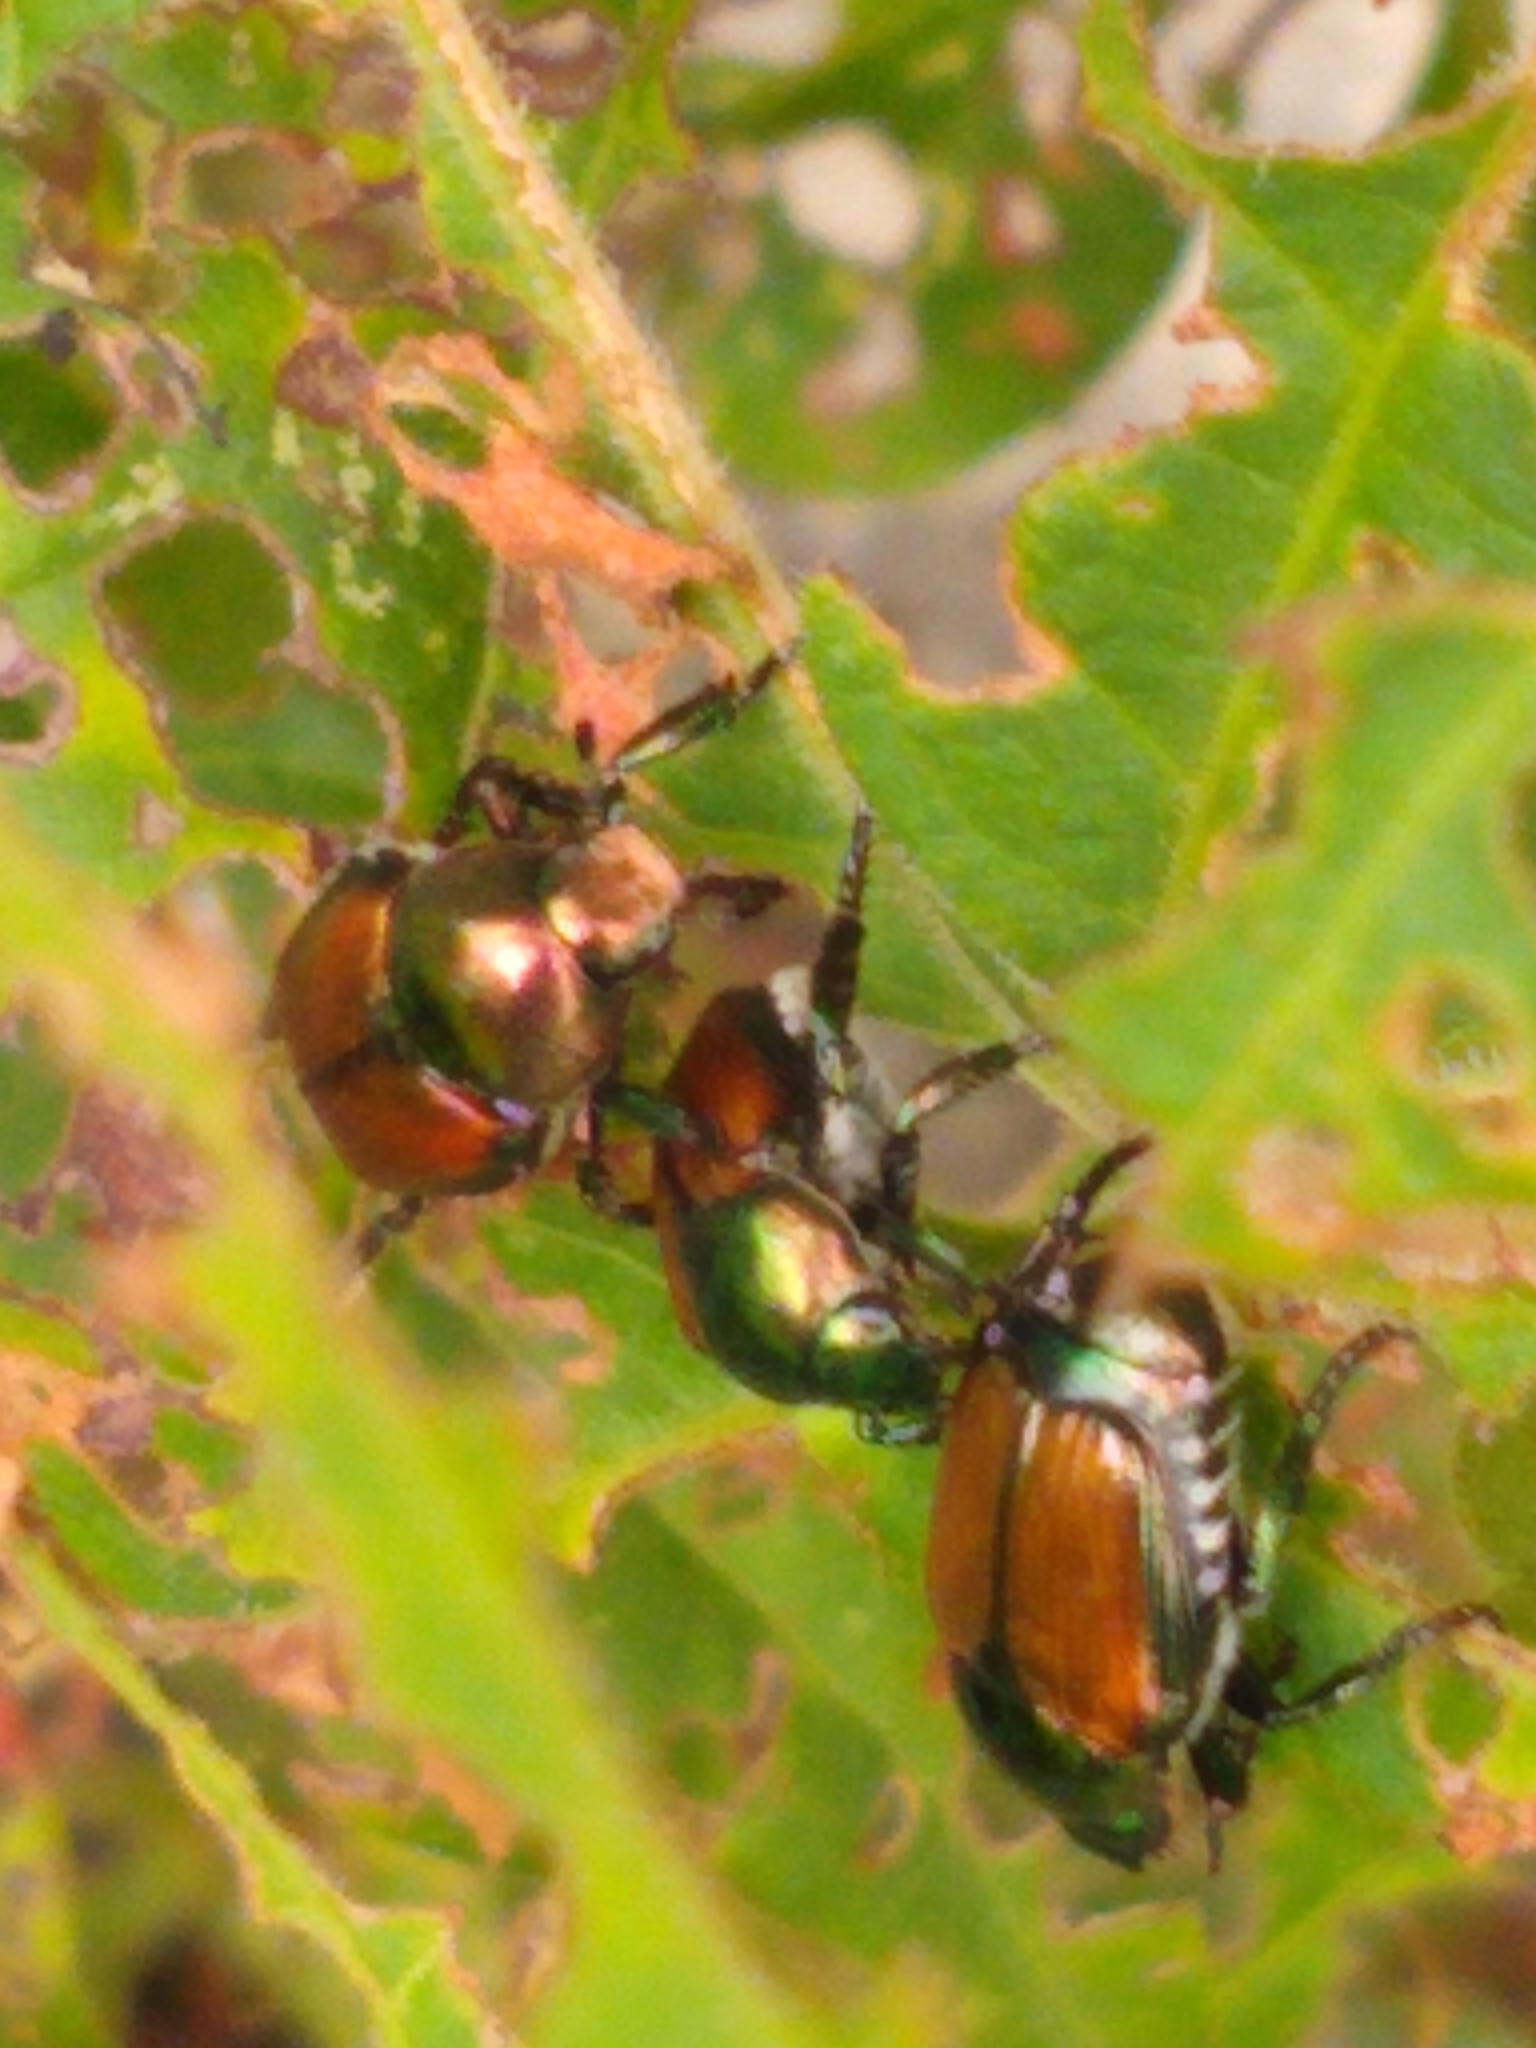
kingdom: Animalia
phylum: Arthropoda
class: Insecta
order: Coleoptera
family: Scarabaeidae
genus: Popillia
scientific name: Popillia japonica
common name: Japanese beetle
